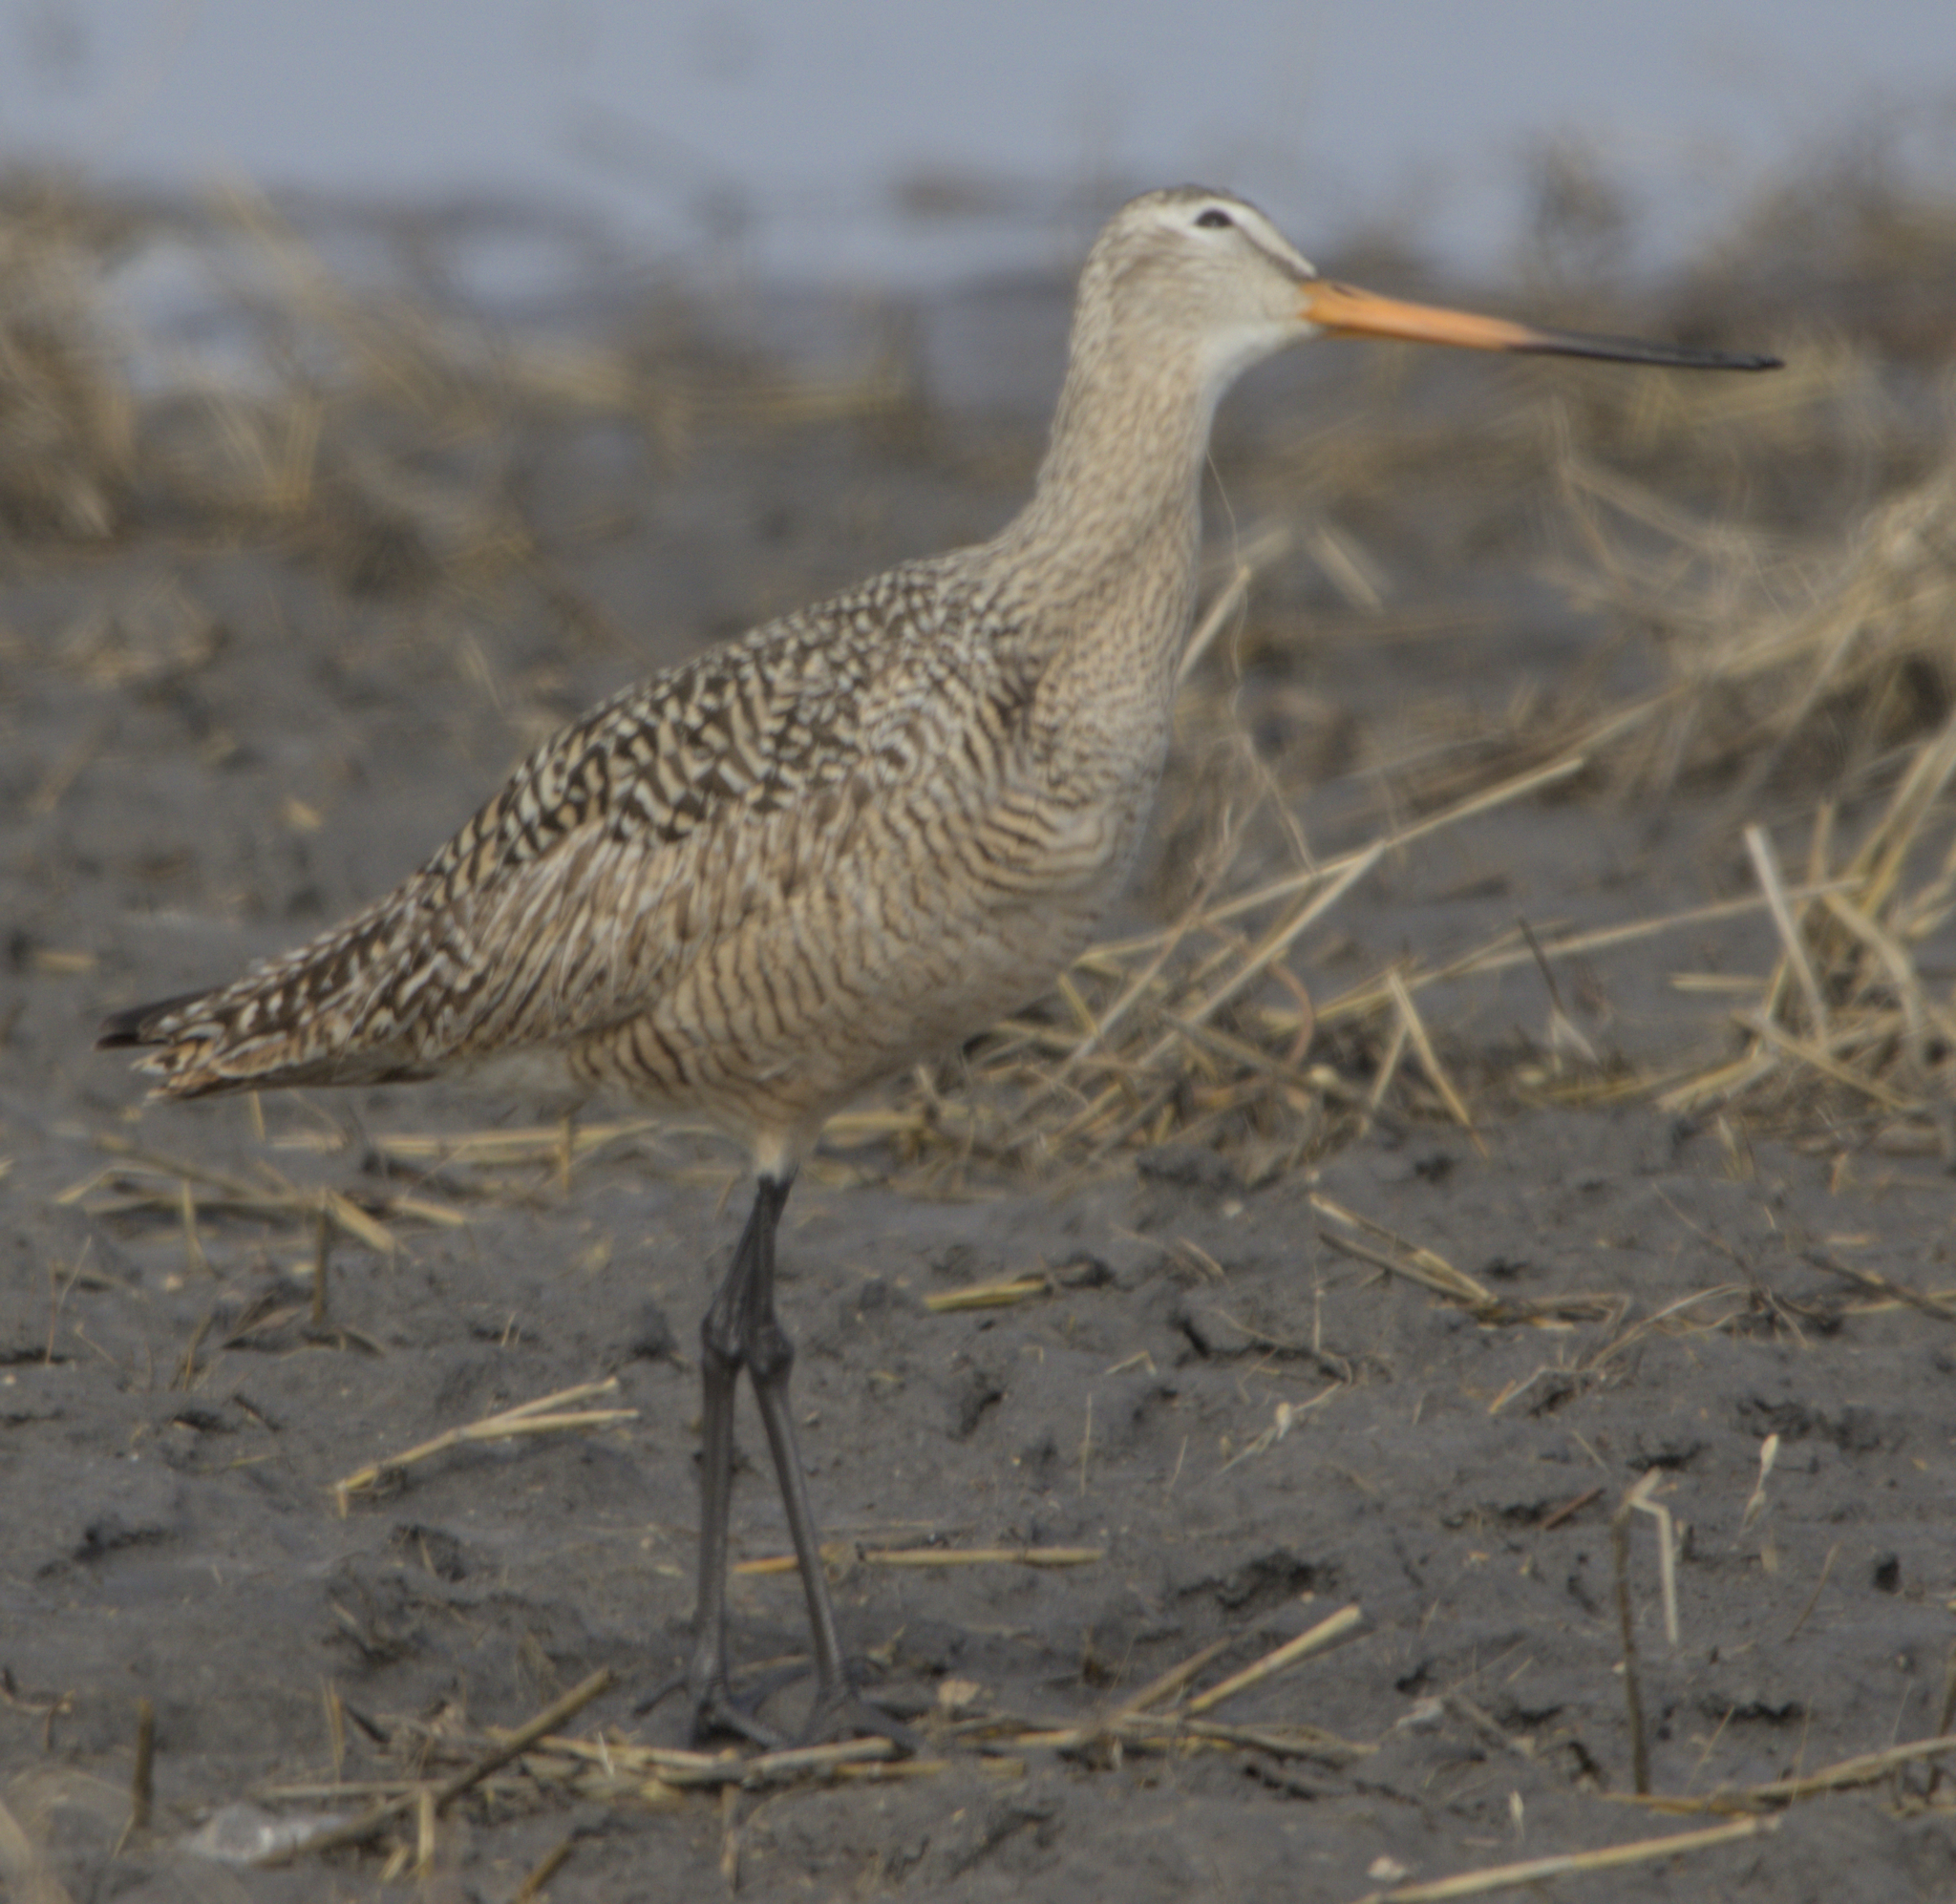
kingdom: Animalia
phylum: Chordata
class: Aves
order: Charadriiformes
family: Scolopacidae
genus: Limosa
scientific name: Limosa fedoa
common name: Marbled godwit
